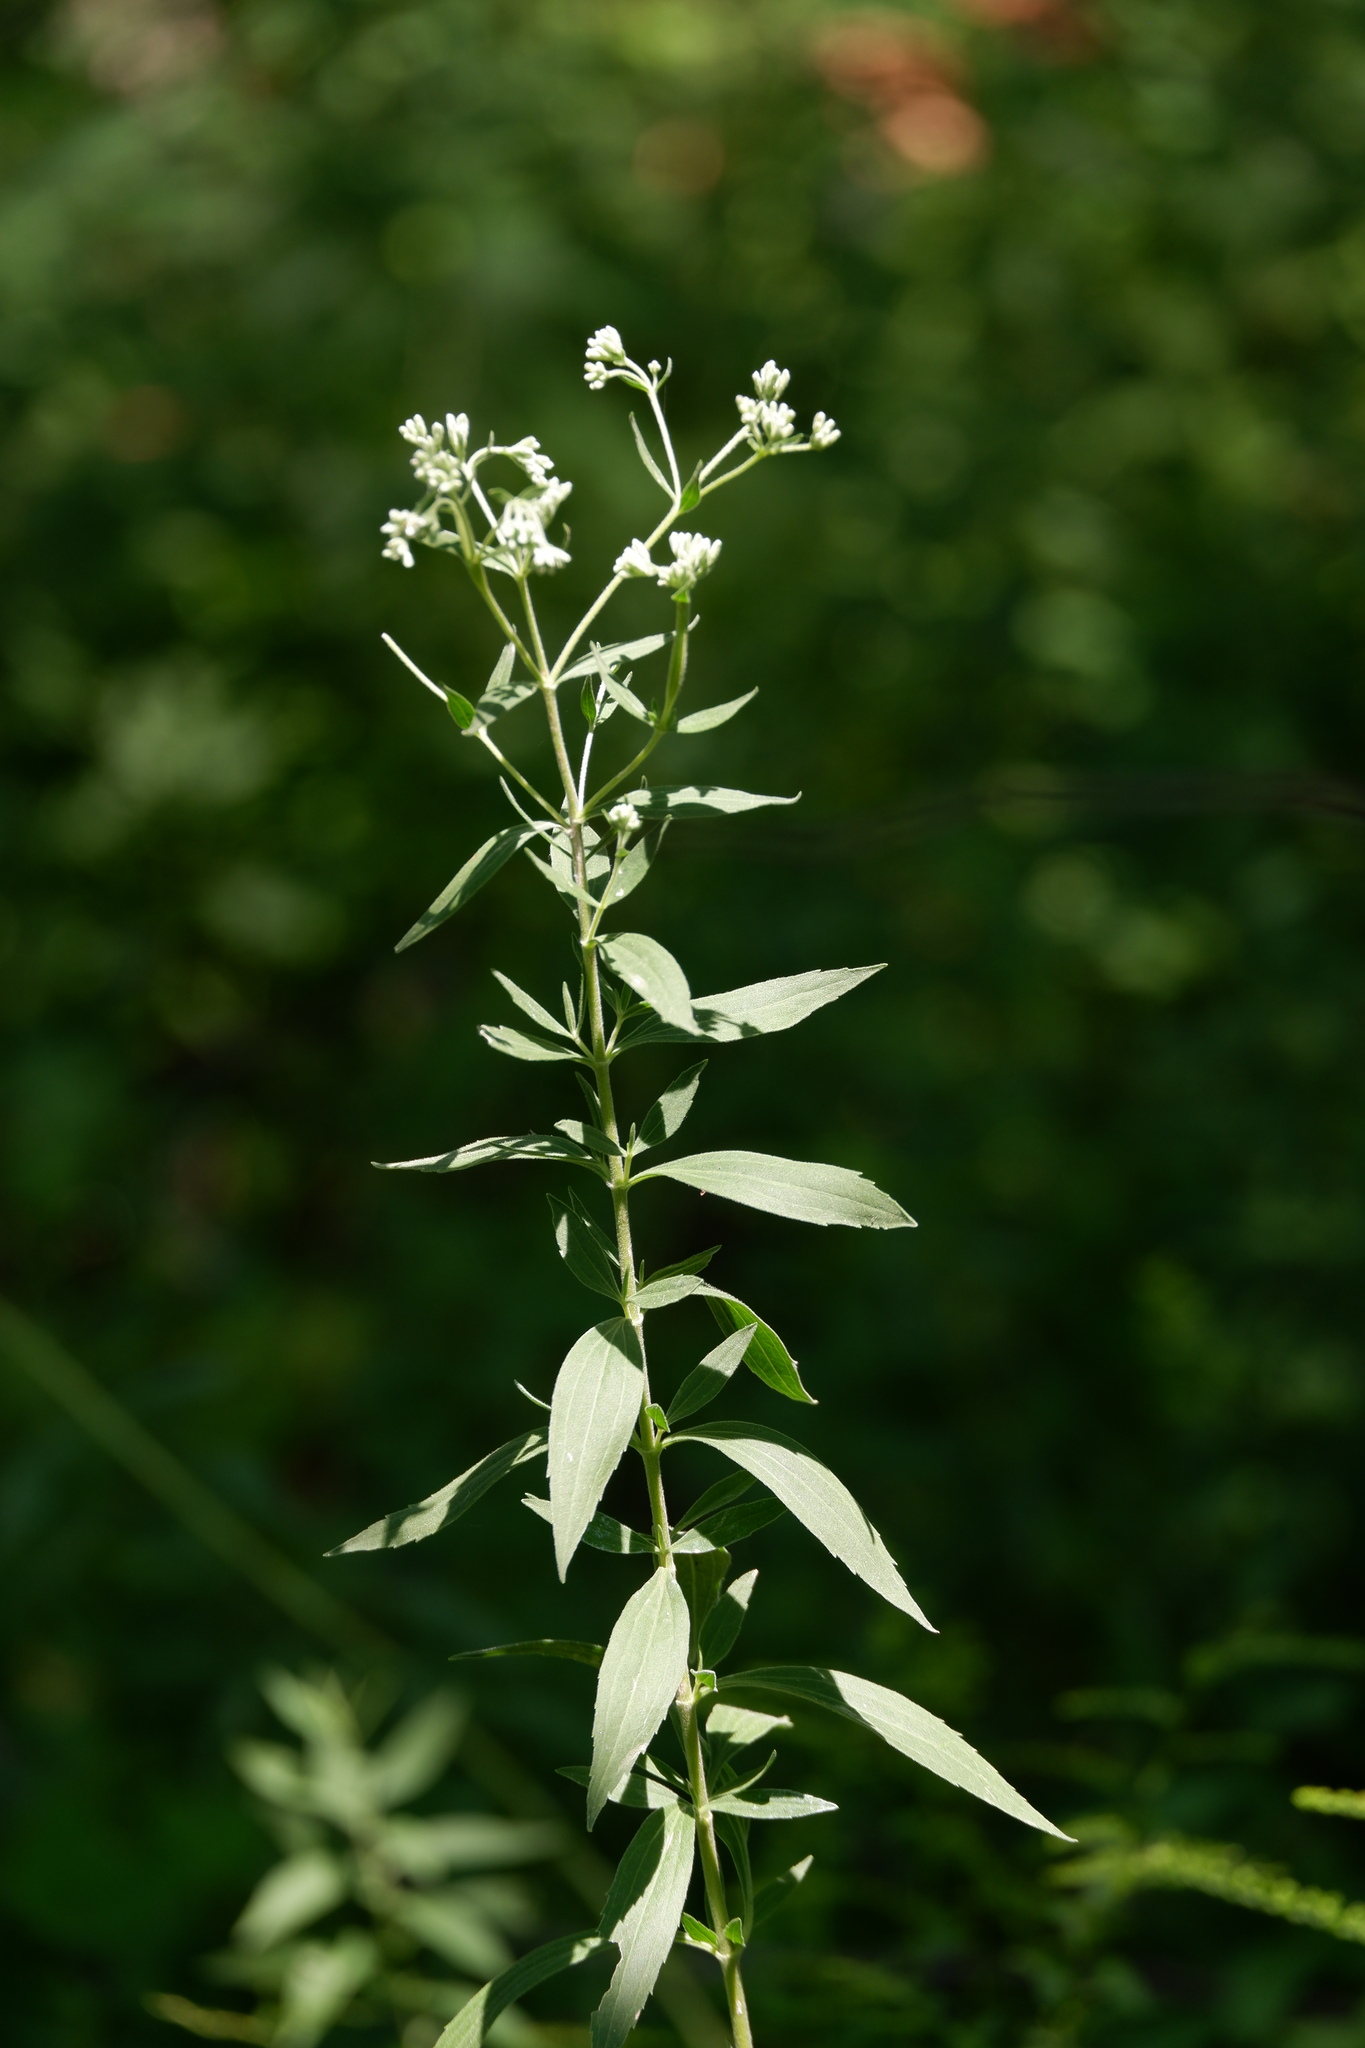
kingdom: Plantae
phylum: Tracheophyta
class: Magnoliopsida
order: Asterales
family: Asteraceae
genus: Eupatorium
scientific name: Eupatorium altissimum
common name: Tall thoroughwort
